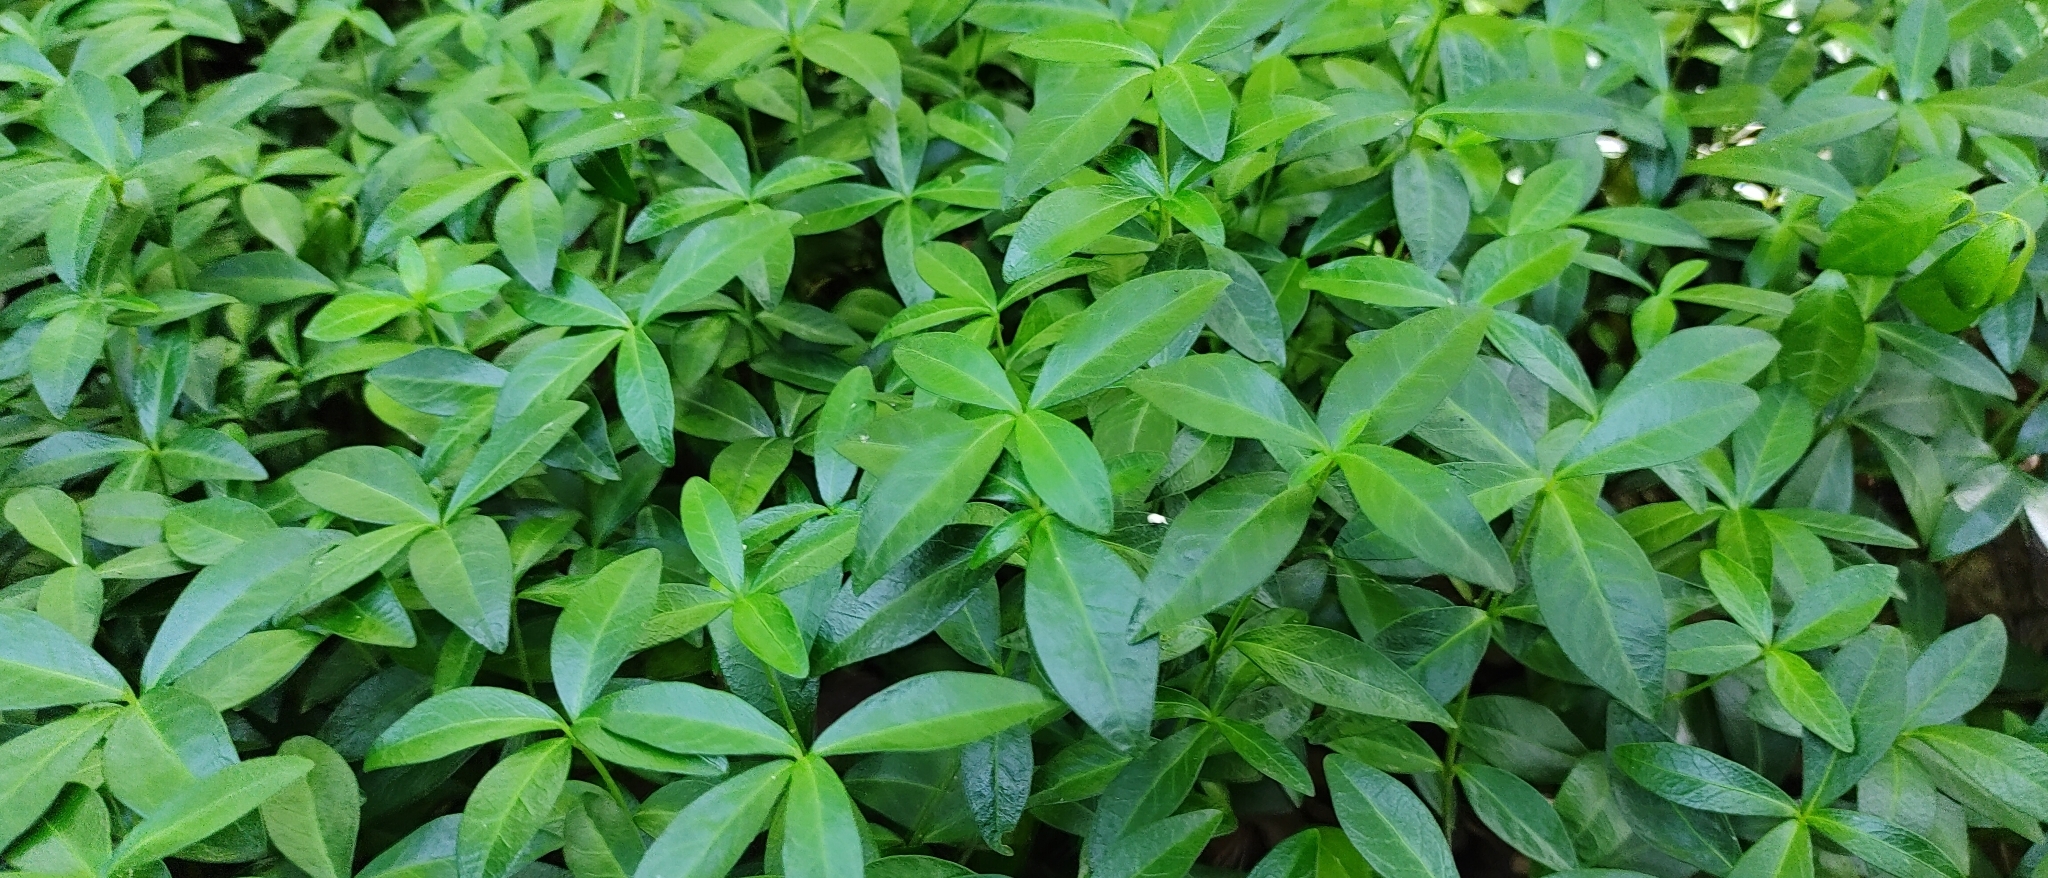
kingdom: Plantae
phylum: Tracheophyta
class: Magnoliopsida
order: Gentianales
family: Apocynaceae
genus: Vinca
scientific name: Vinca minor
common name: Lesser periwinkle
